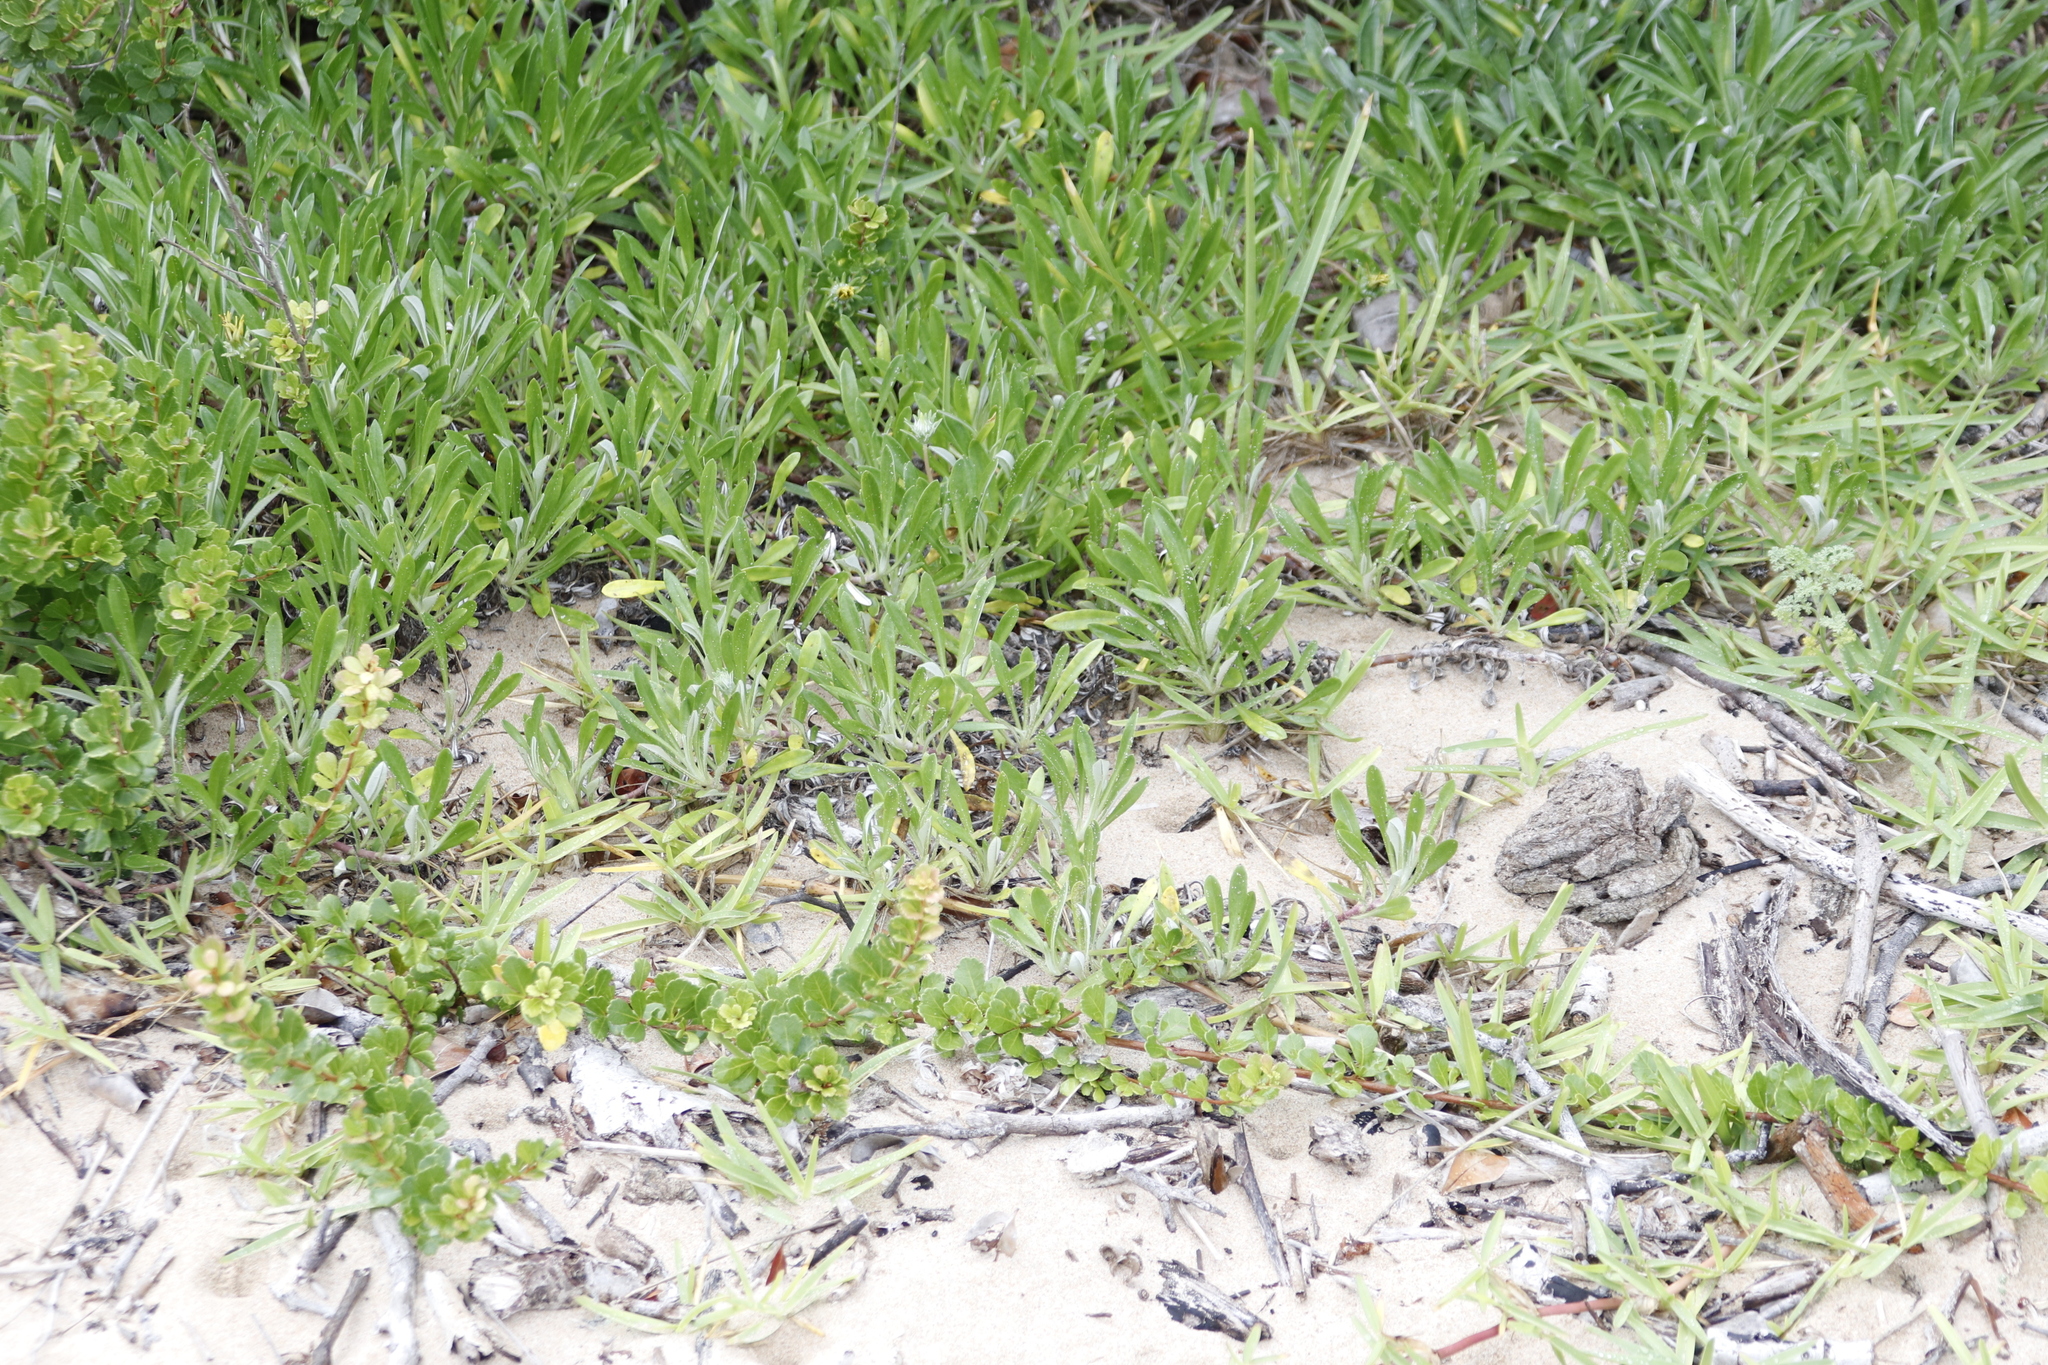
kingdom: Plantae
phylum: Tracheophyta
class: Magnoliopsida
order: Sapindales
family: Anacardiaceae
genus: Searsia
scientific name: Searsia crenata
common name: Crowberry
